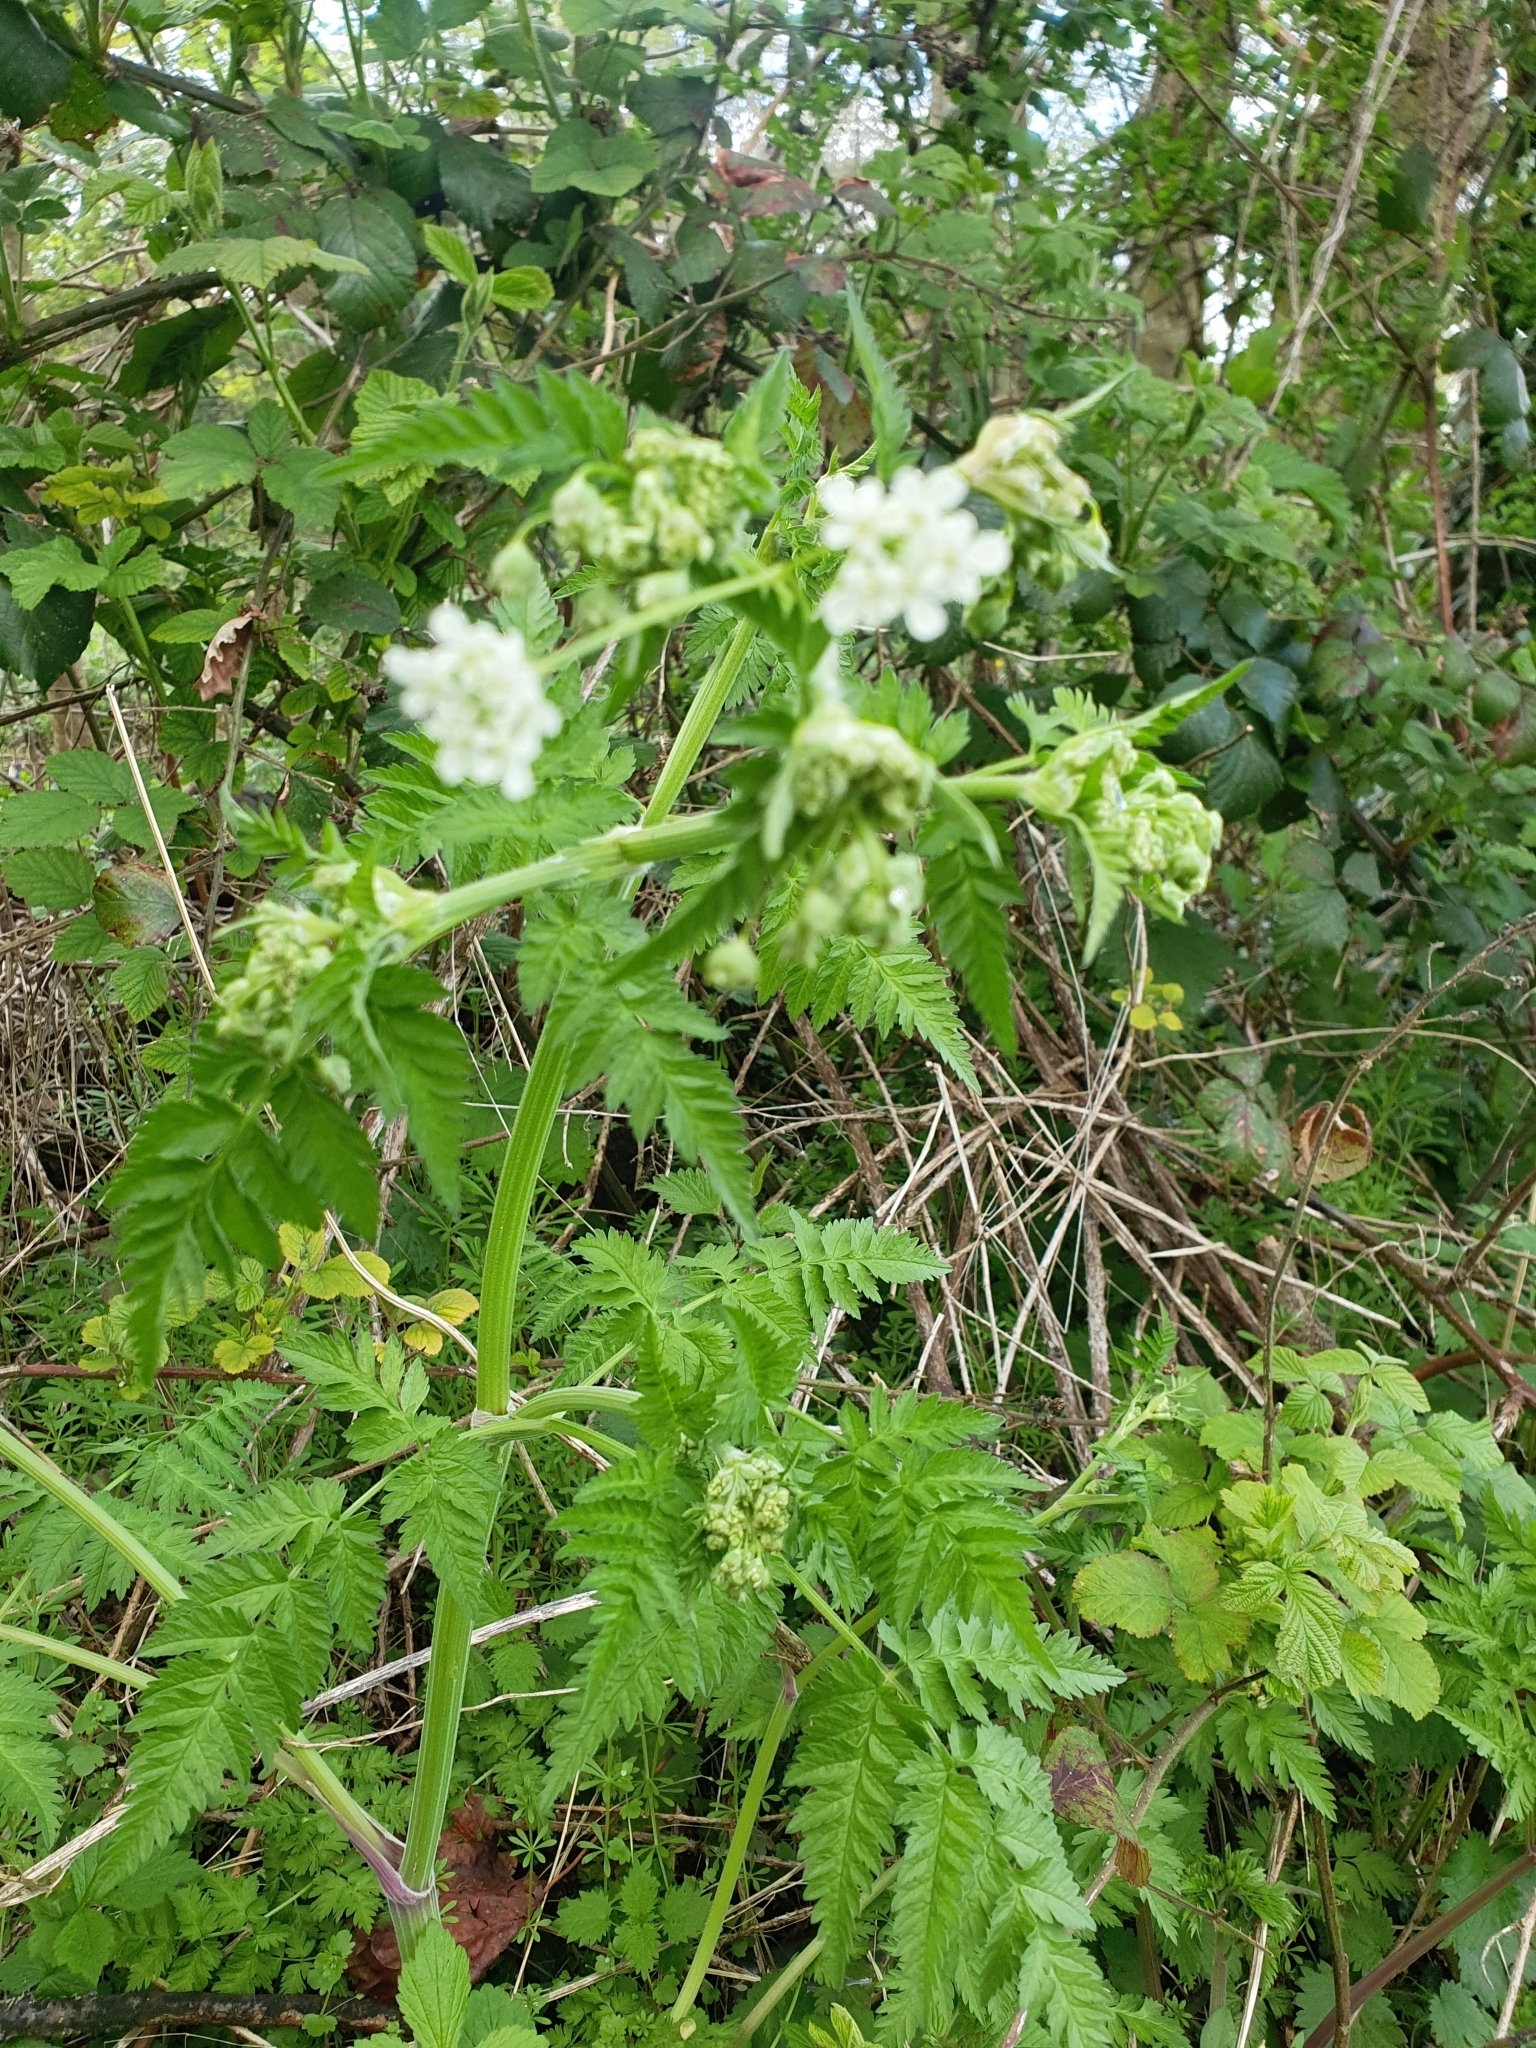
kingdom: Plantae
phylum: Tracheophyta
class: Magnoliopsida
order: Apiales
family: Apiaceae
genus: Anthriscus
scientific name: Anthriscus sylvestris
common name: Cow parsley
